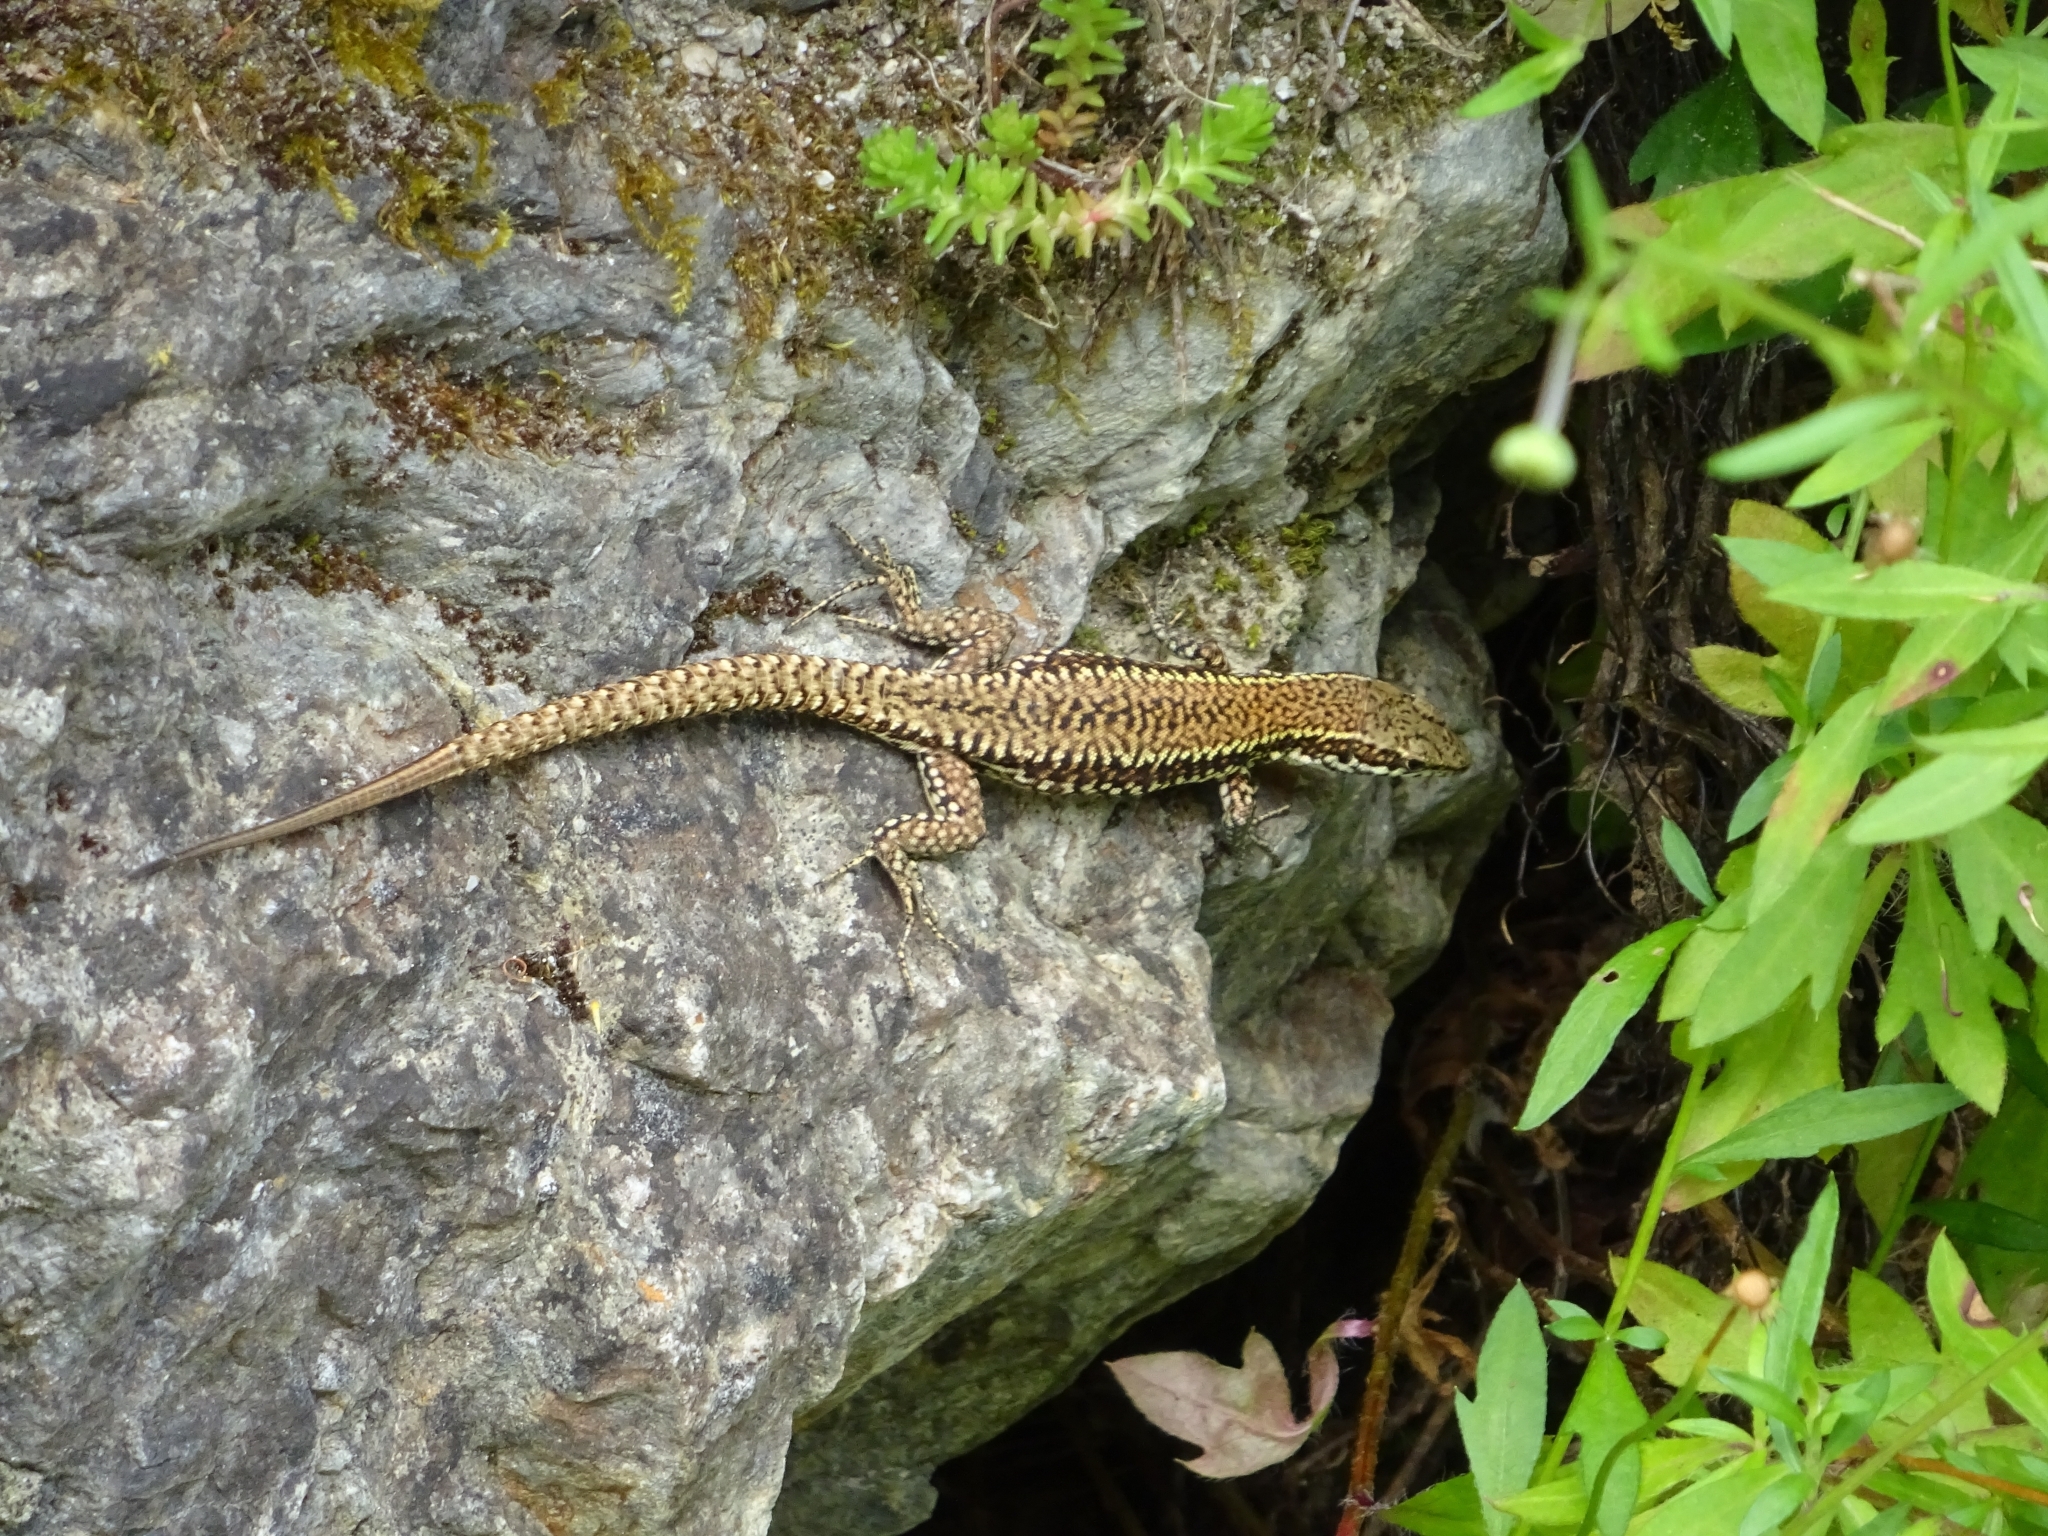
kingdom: Animalia
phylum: Chordata
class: Squamata
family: Lacertidae
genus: Podarcis
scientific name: Podarcis muralis
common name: Common wall lizard
